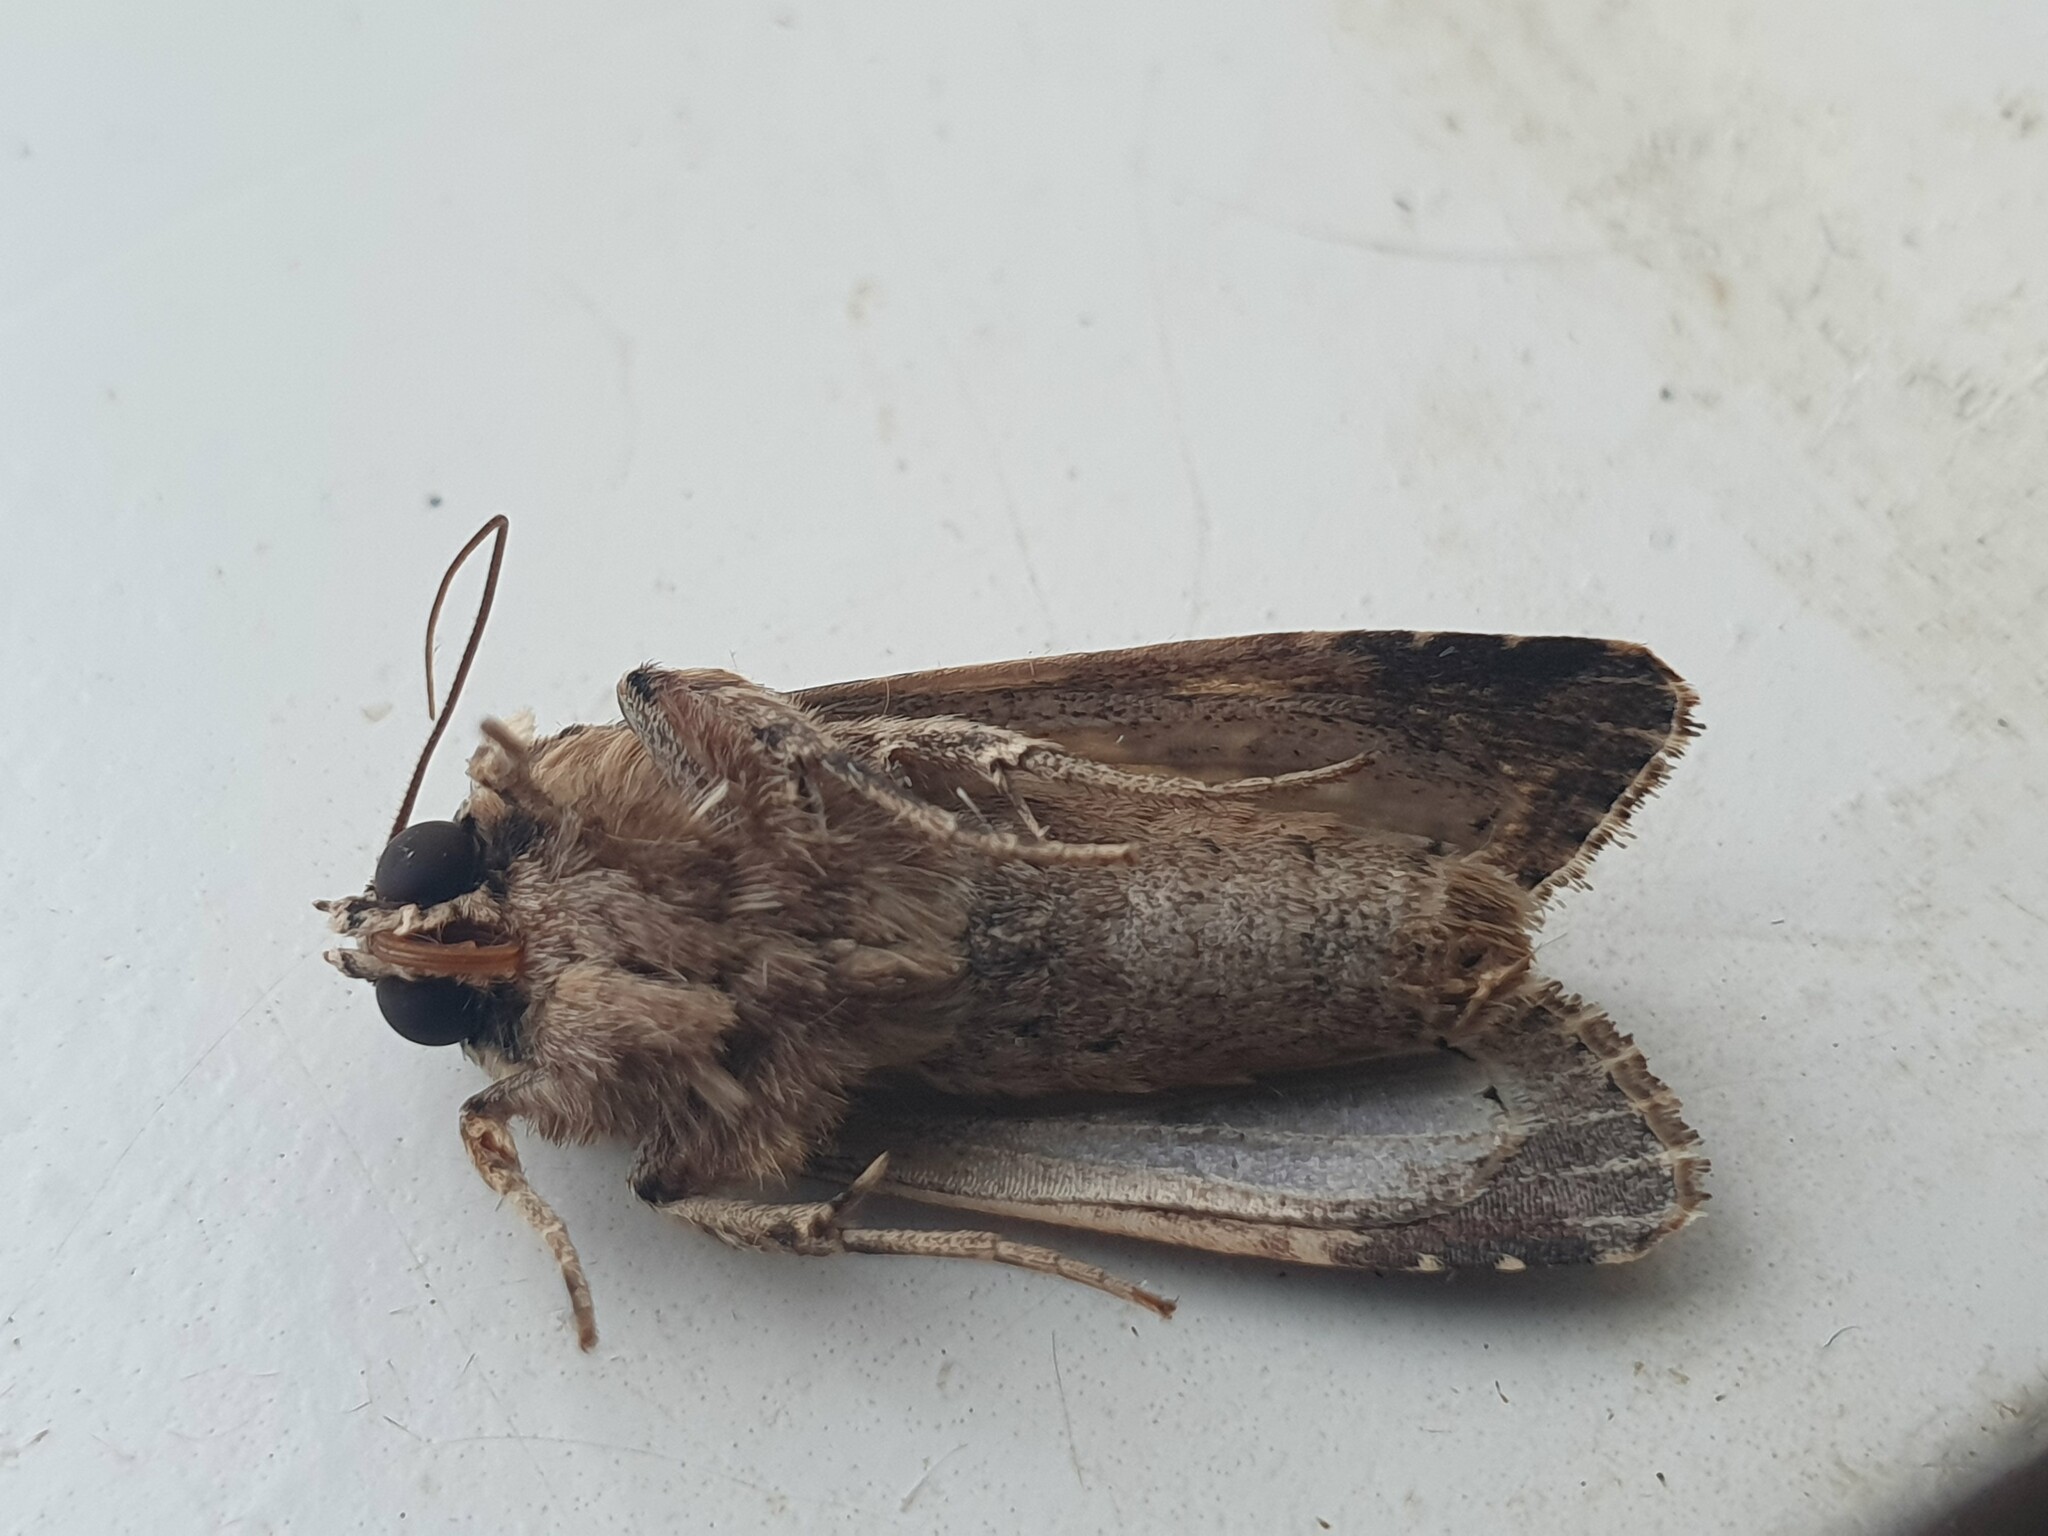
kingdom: Animalia
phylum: Arthropoda
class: Insecta
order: Lepidoptera
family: Noctuidae
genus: Spodoptera
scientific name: Spodoptera litura
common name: Asian cotton leafworm
